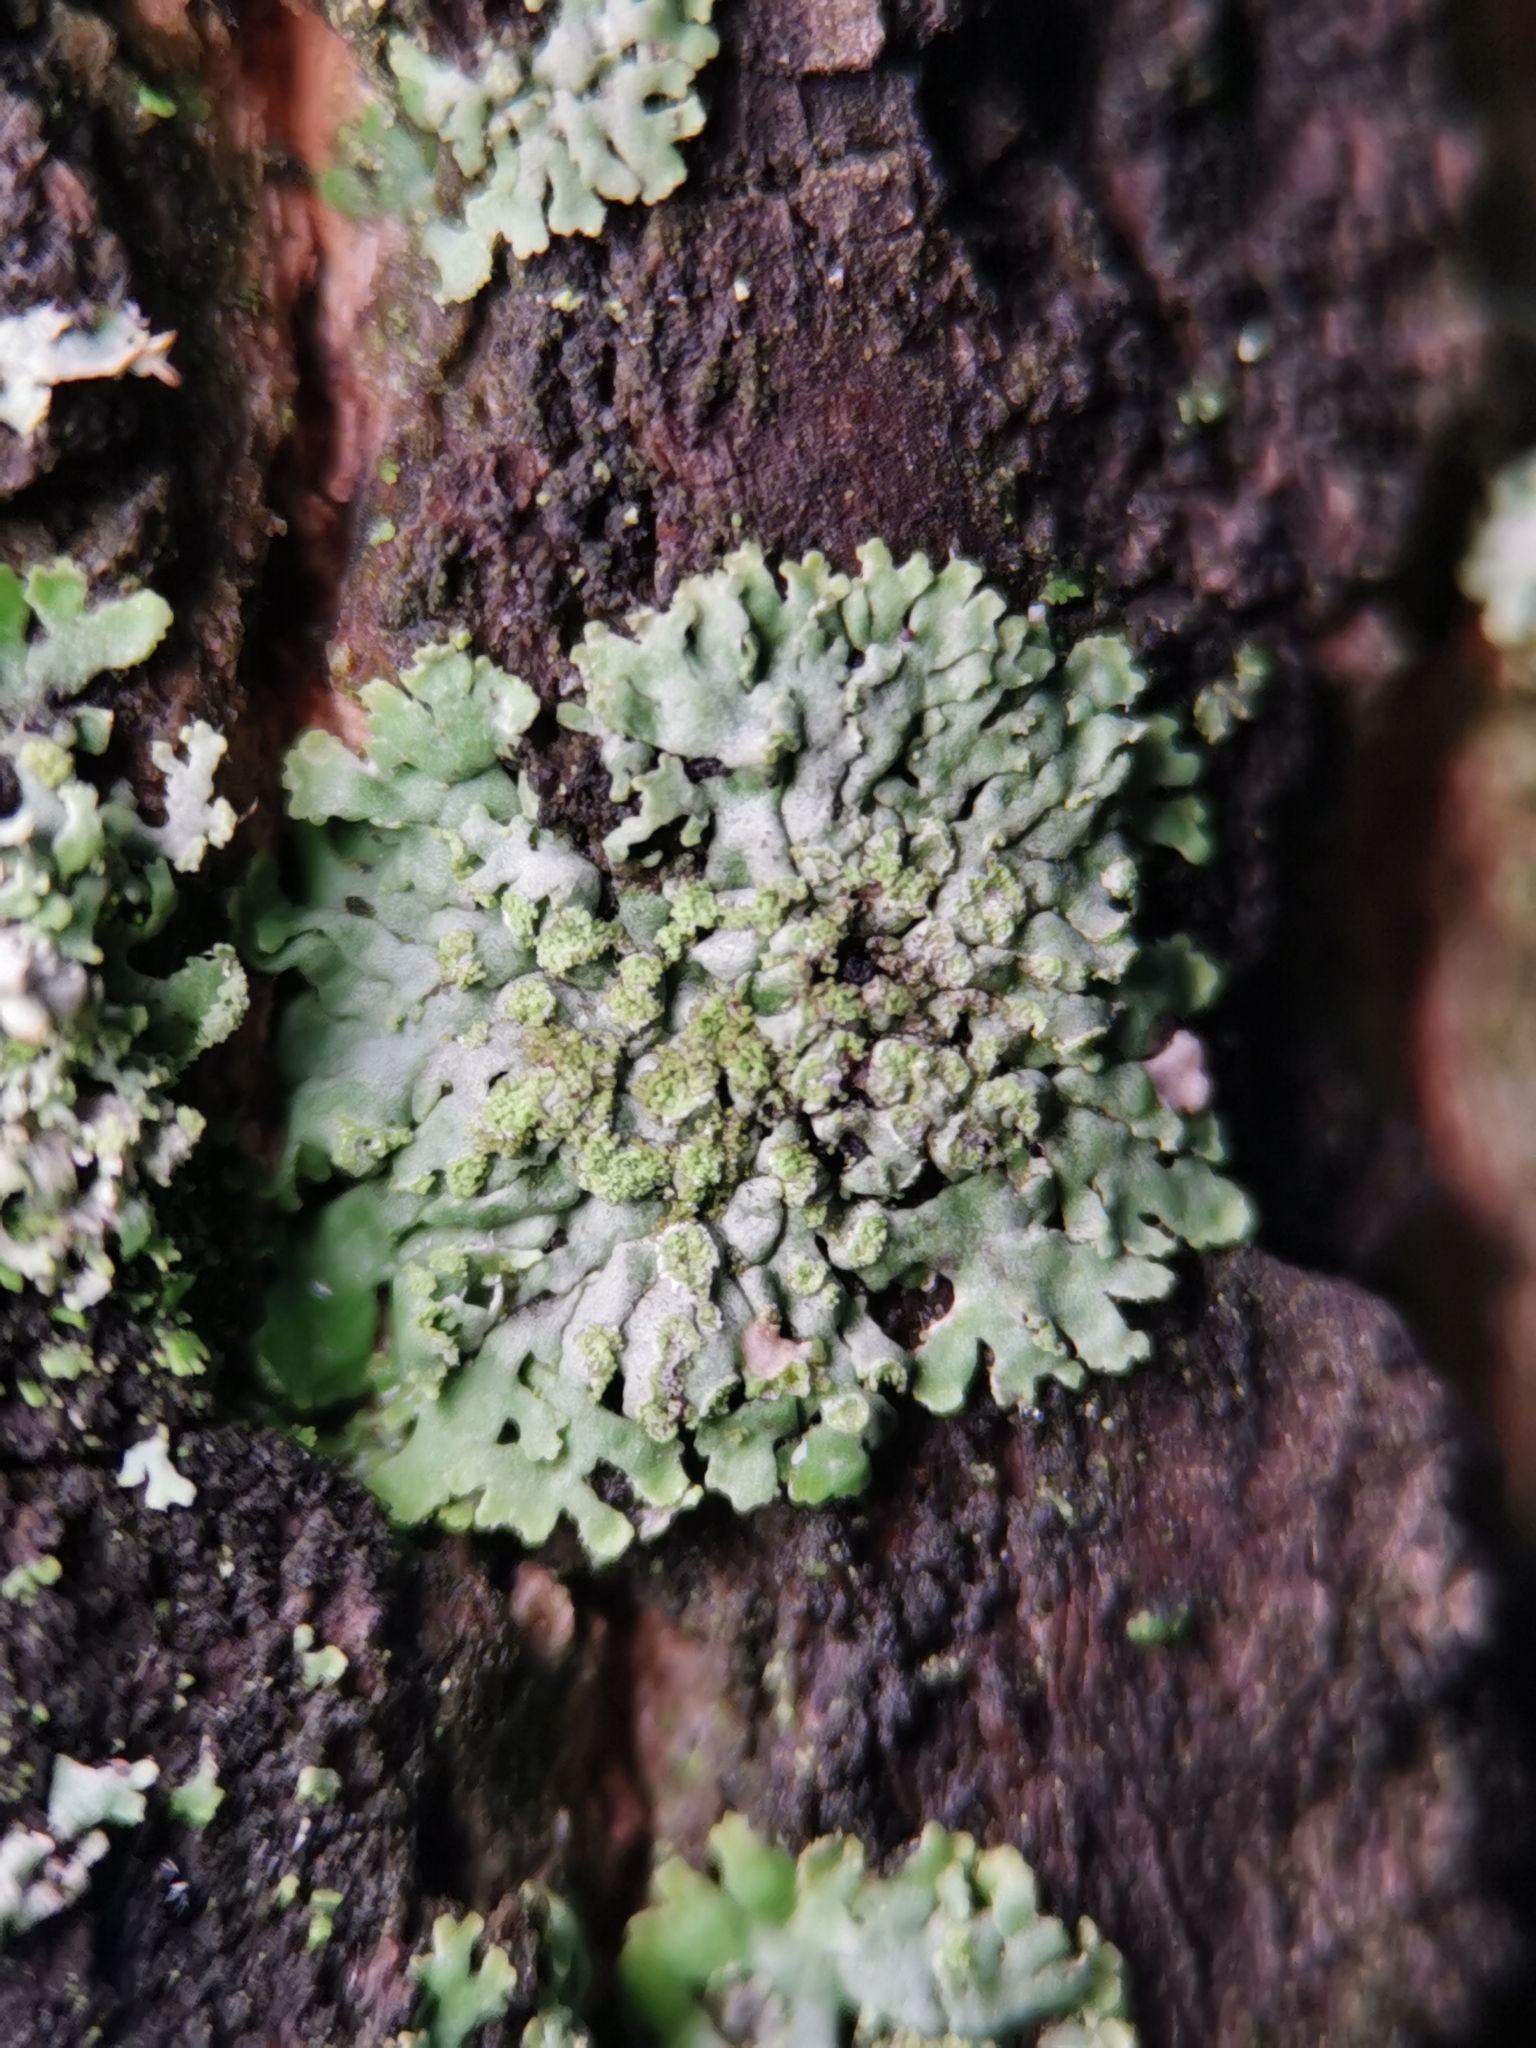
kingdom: Fungi
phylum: Ascomycota
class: Lecanoromycetes
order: Caliciales
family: Physciaceae
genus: Phaeophyscia
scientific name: Phaeophyscia orbicularis
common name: Mealy shadow lichen
